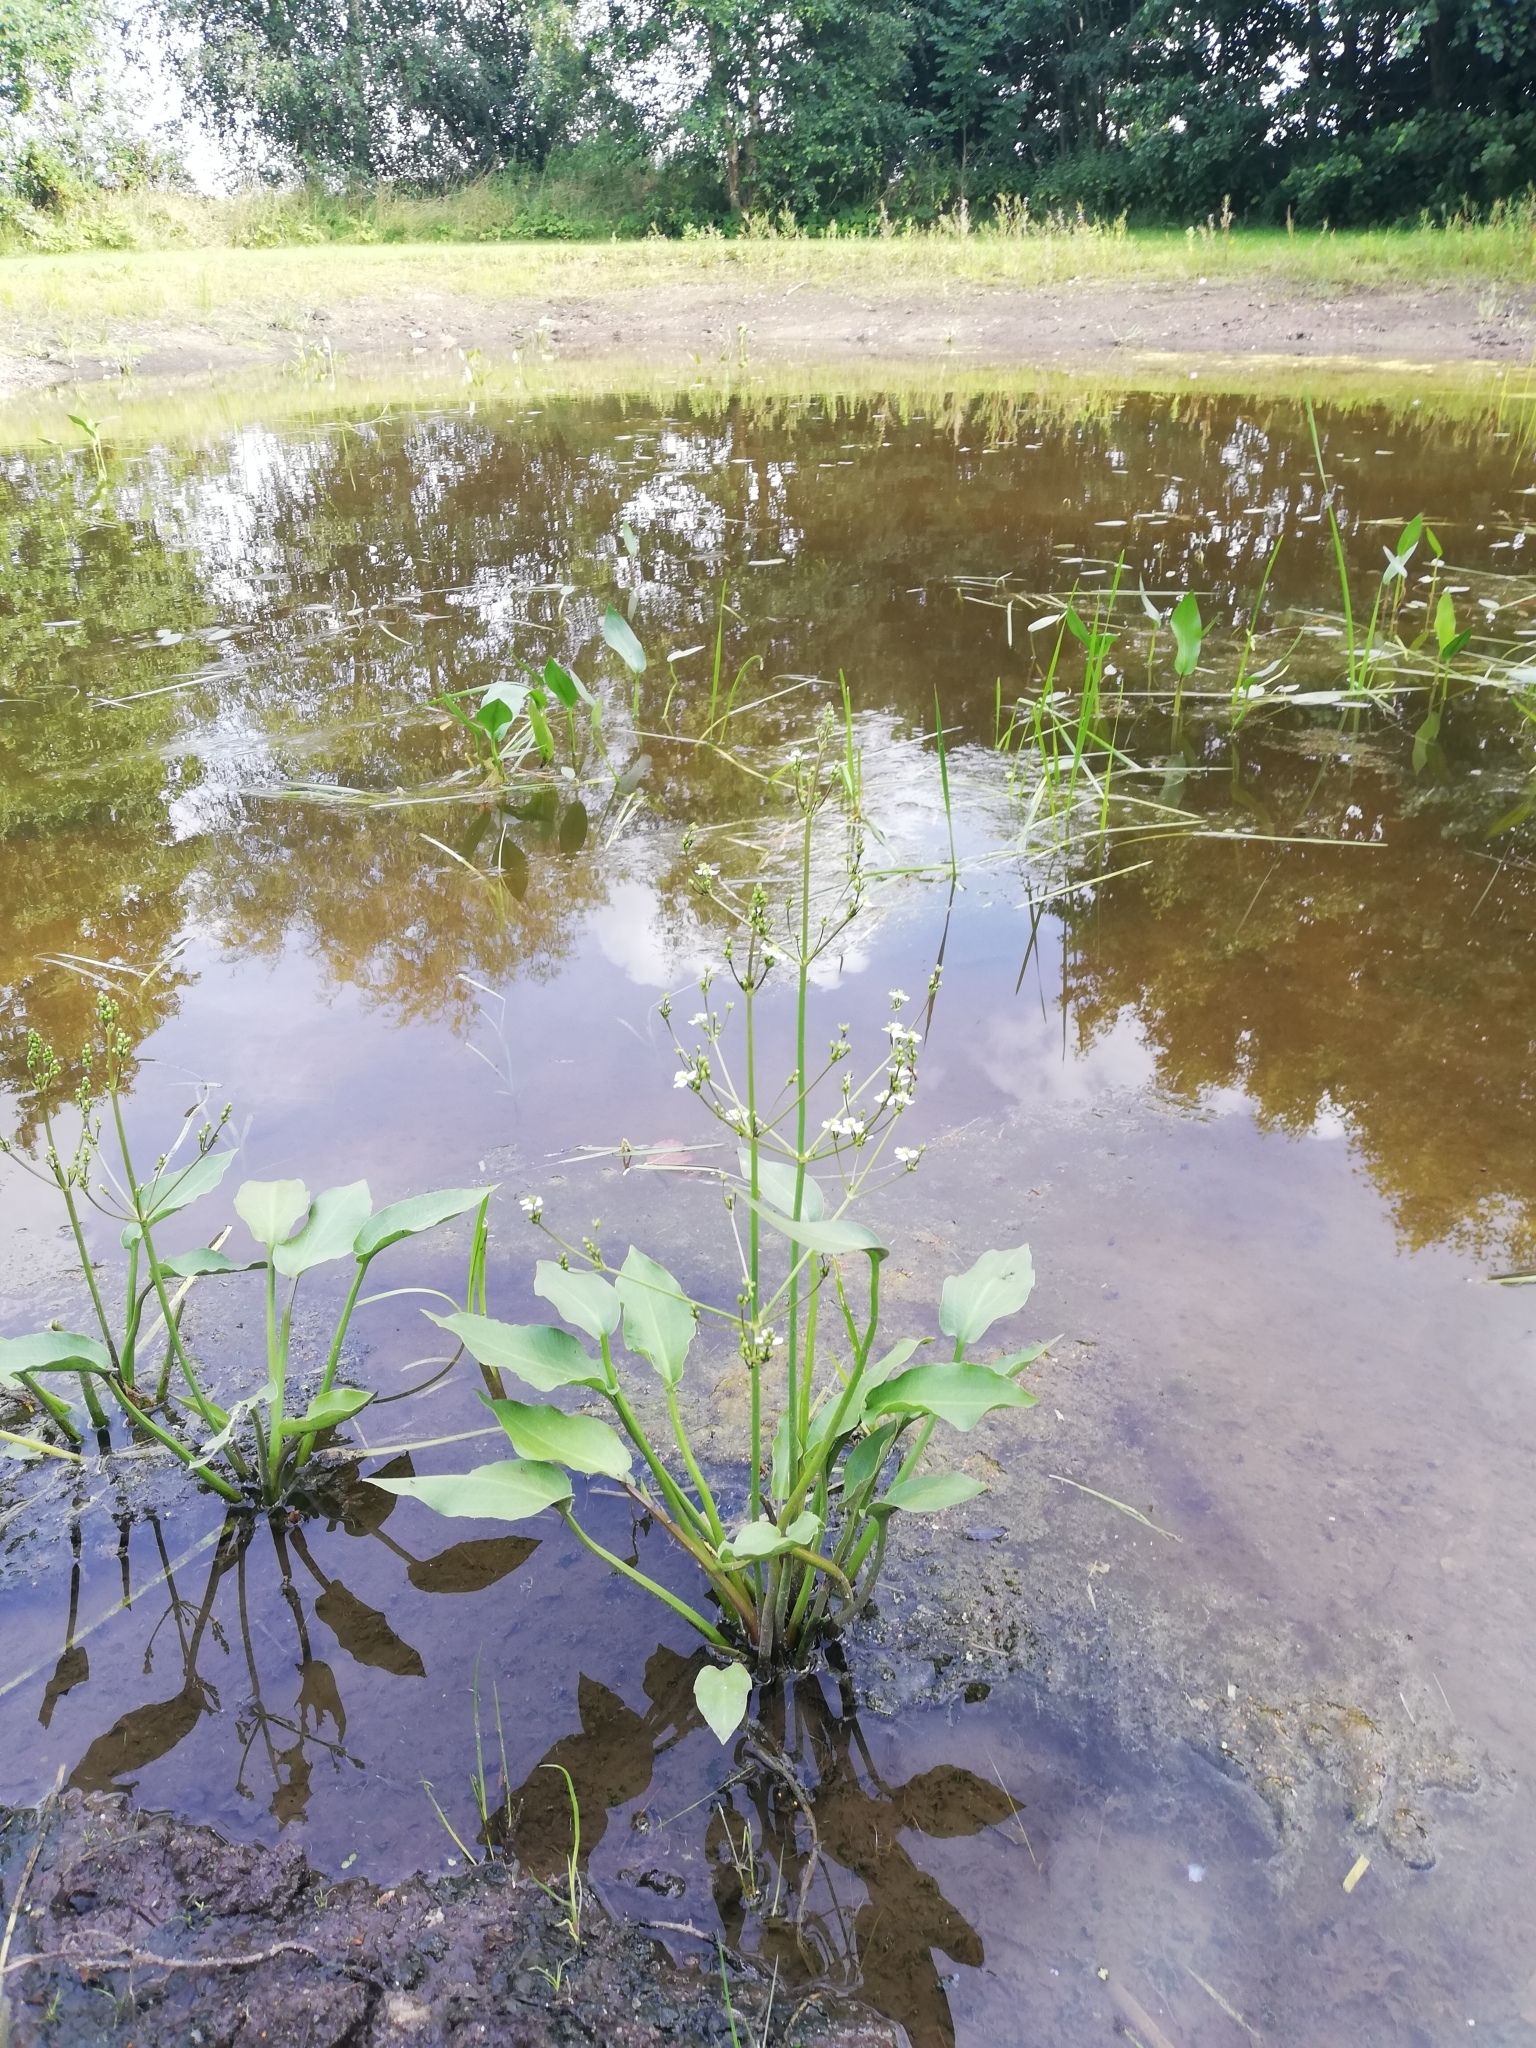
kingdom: Plantae
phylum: Tracheophyta
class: Liliopsida
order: Alismatales
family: Alismataceae
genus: Alisma
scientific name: Alisma plantago-aquatica
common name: Water-plantain
